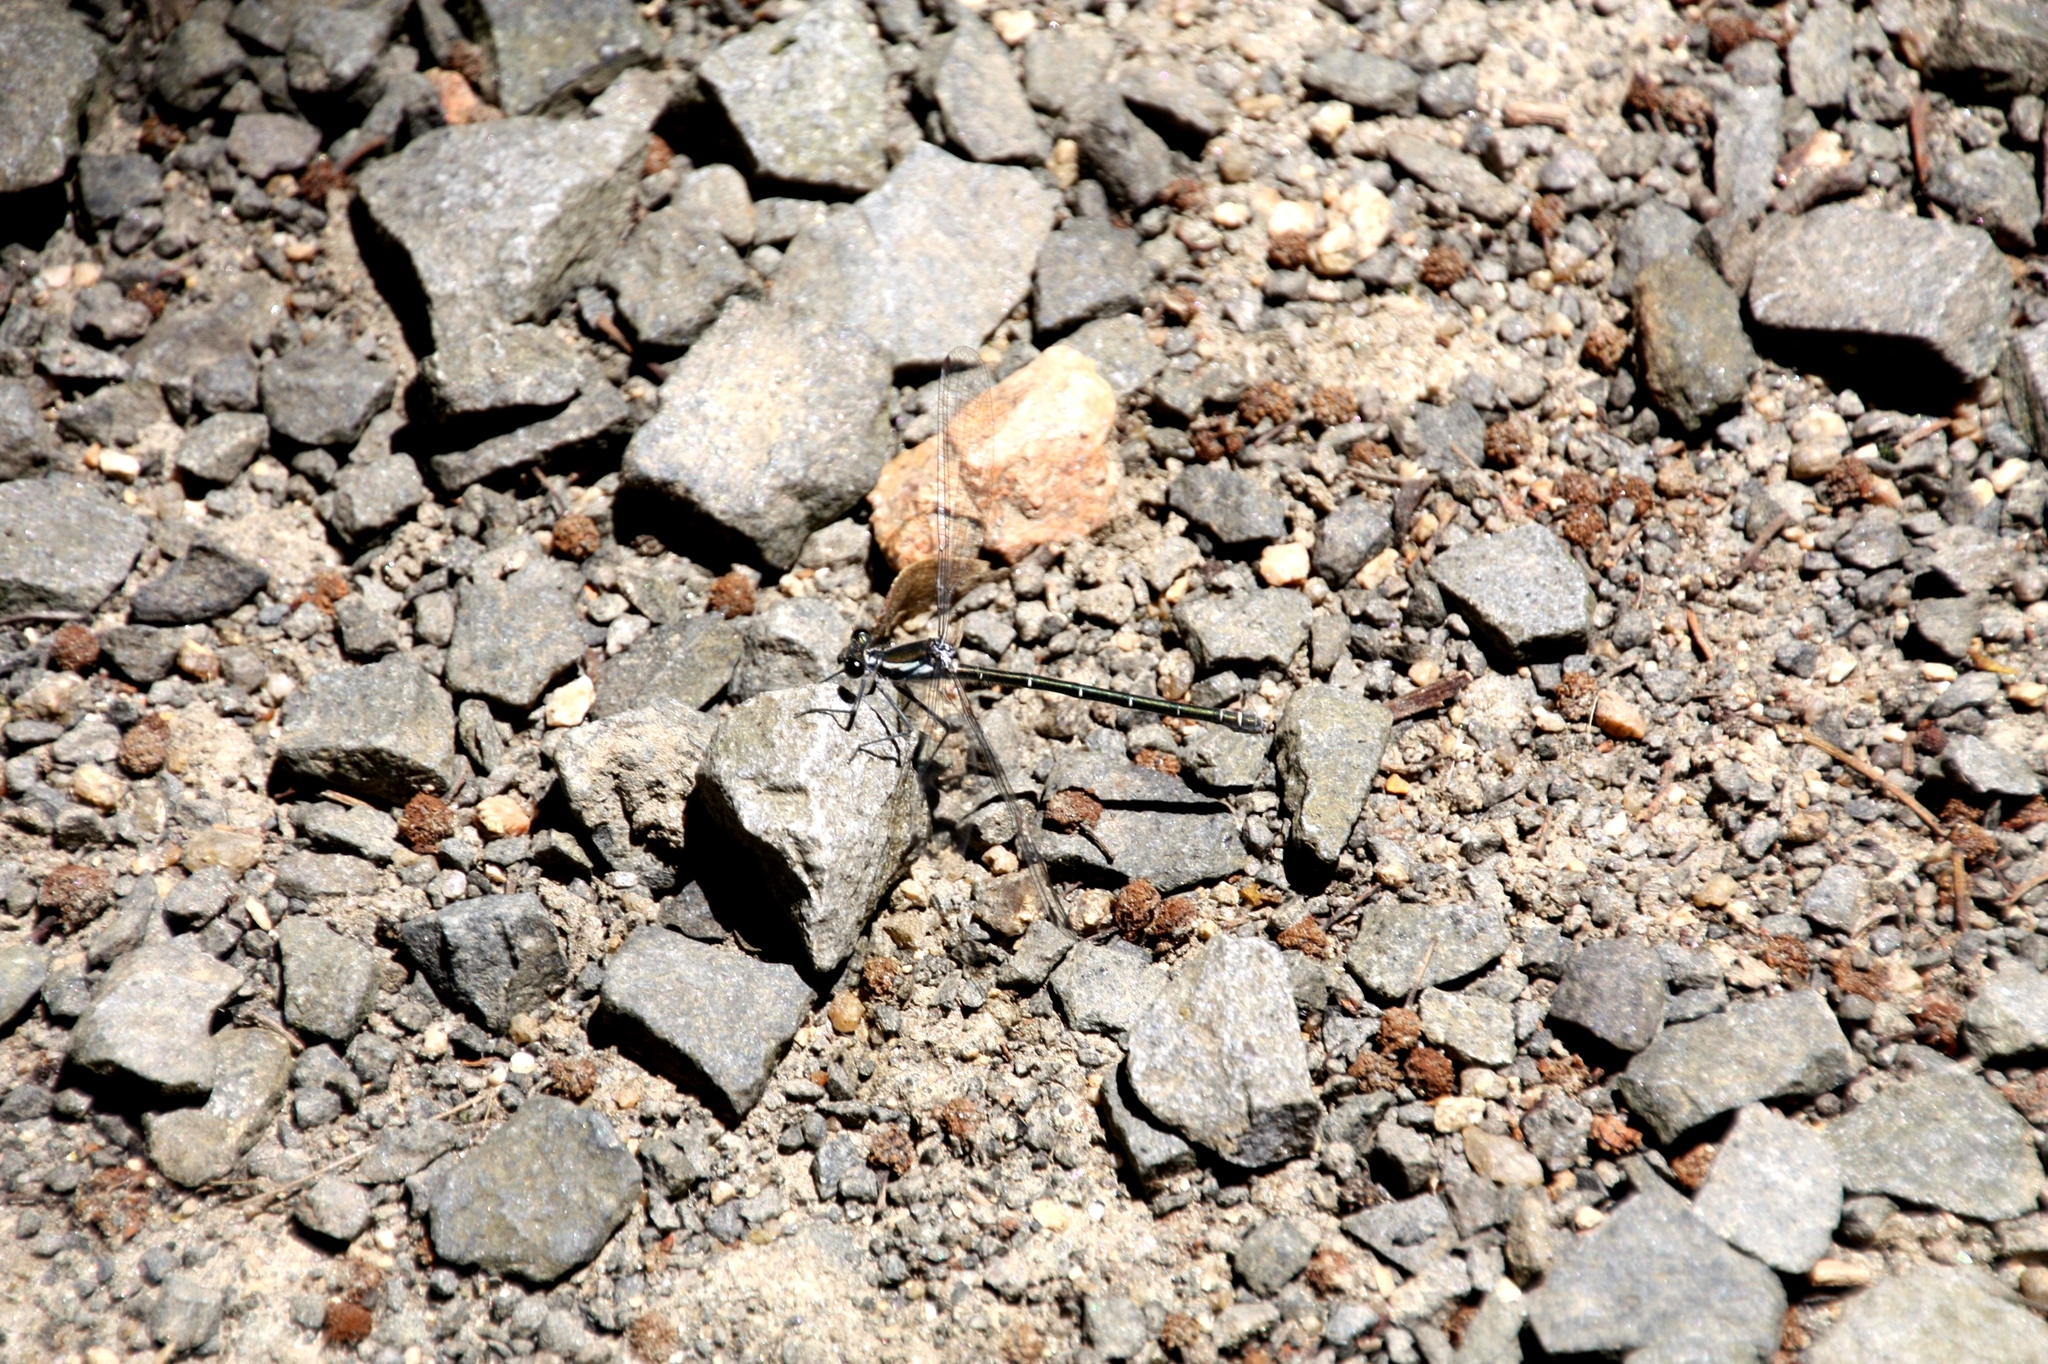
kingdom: Animalia
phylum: Arthropoda
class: Insecta
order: Odonata
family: Argiolestidae
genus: Austroargiolestes
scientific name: Austroargiolestes icteromelas
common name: Common flatwing
